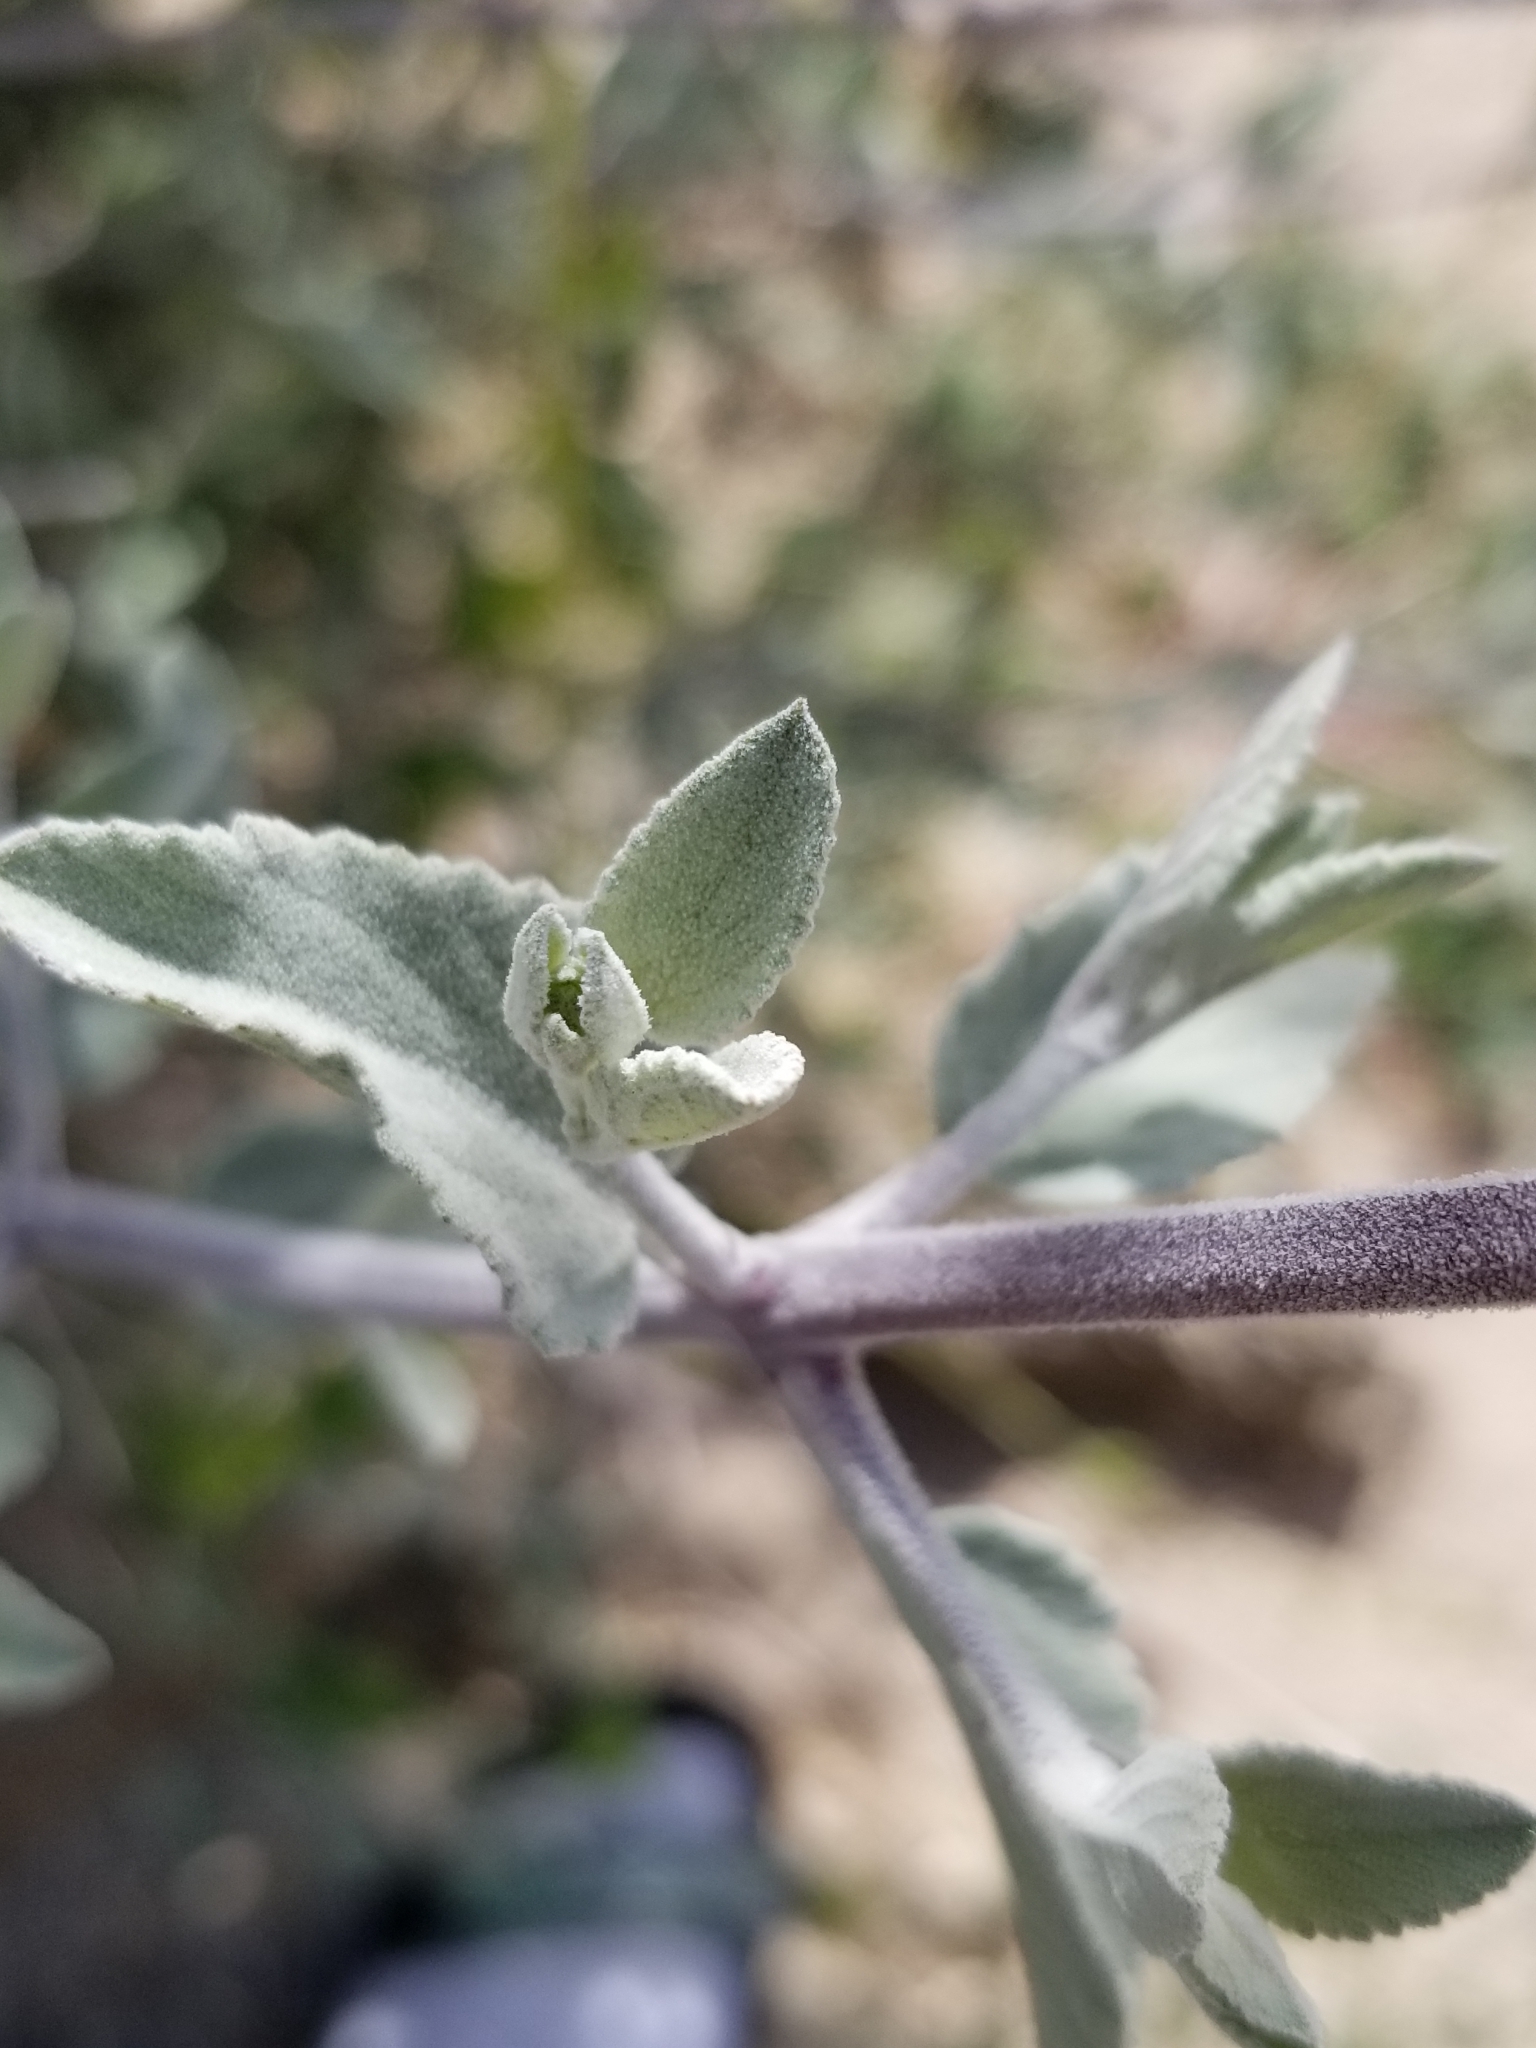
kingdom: Plantae
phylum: Tracheophyta
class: Magnoliopsida
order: Lamiales
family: Lamiaceae
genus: Condea
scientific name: Condea emoryi
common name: Chia
